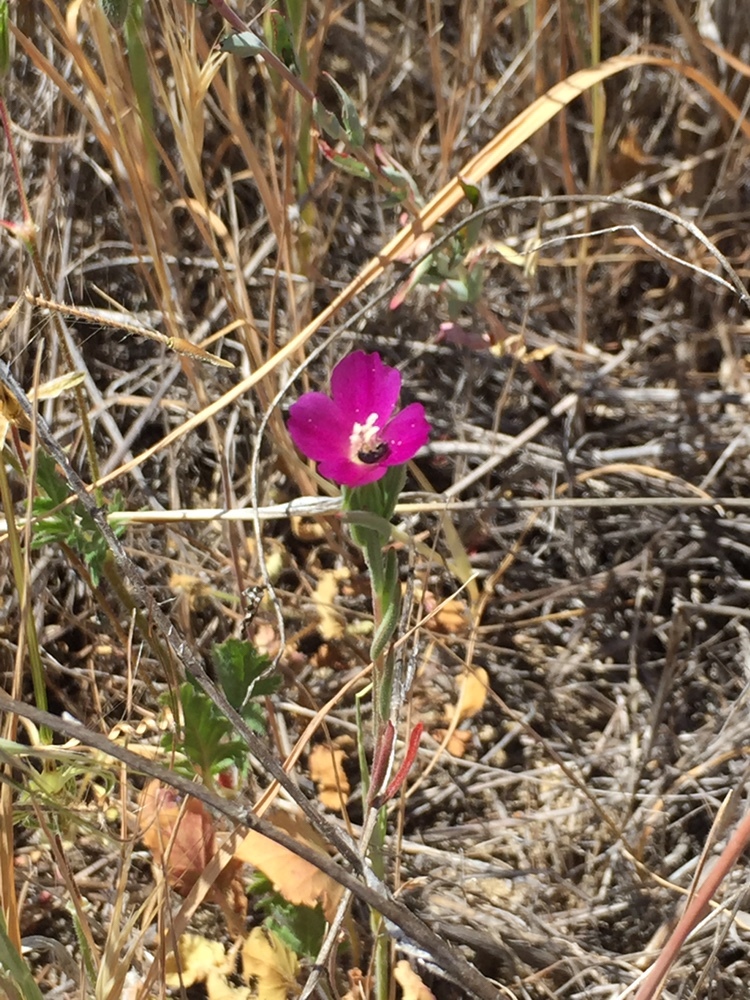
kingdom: Plantae
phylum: Tracheophyta
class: Magnoliopsida
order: Myrtales
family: Onagraceae
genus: Clarkia
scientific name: Clarkia purpurea
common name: Purple clarkia
